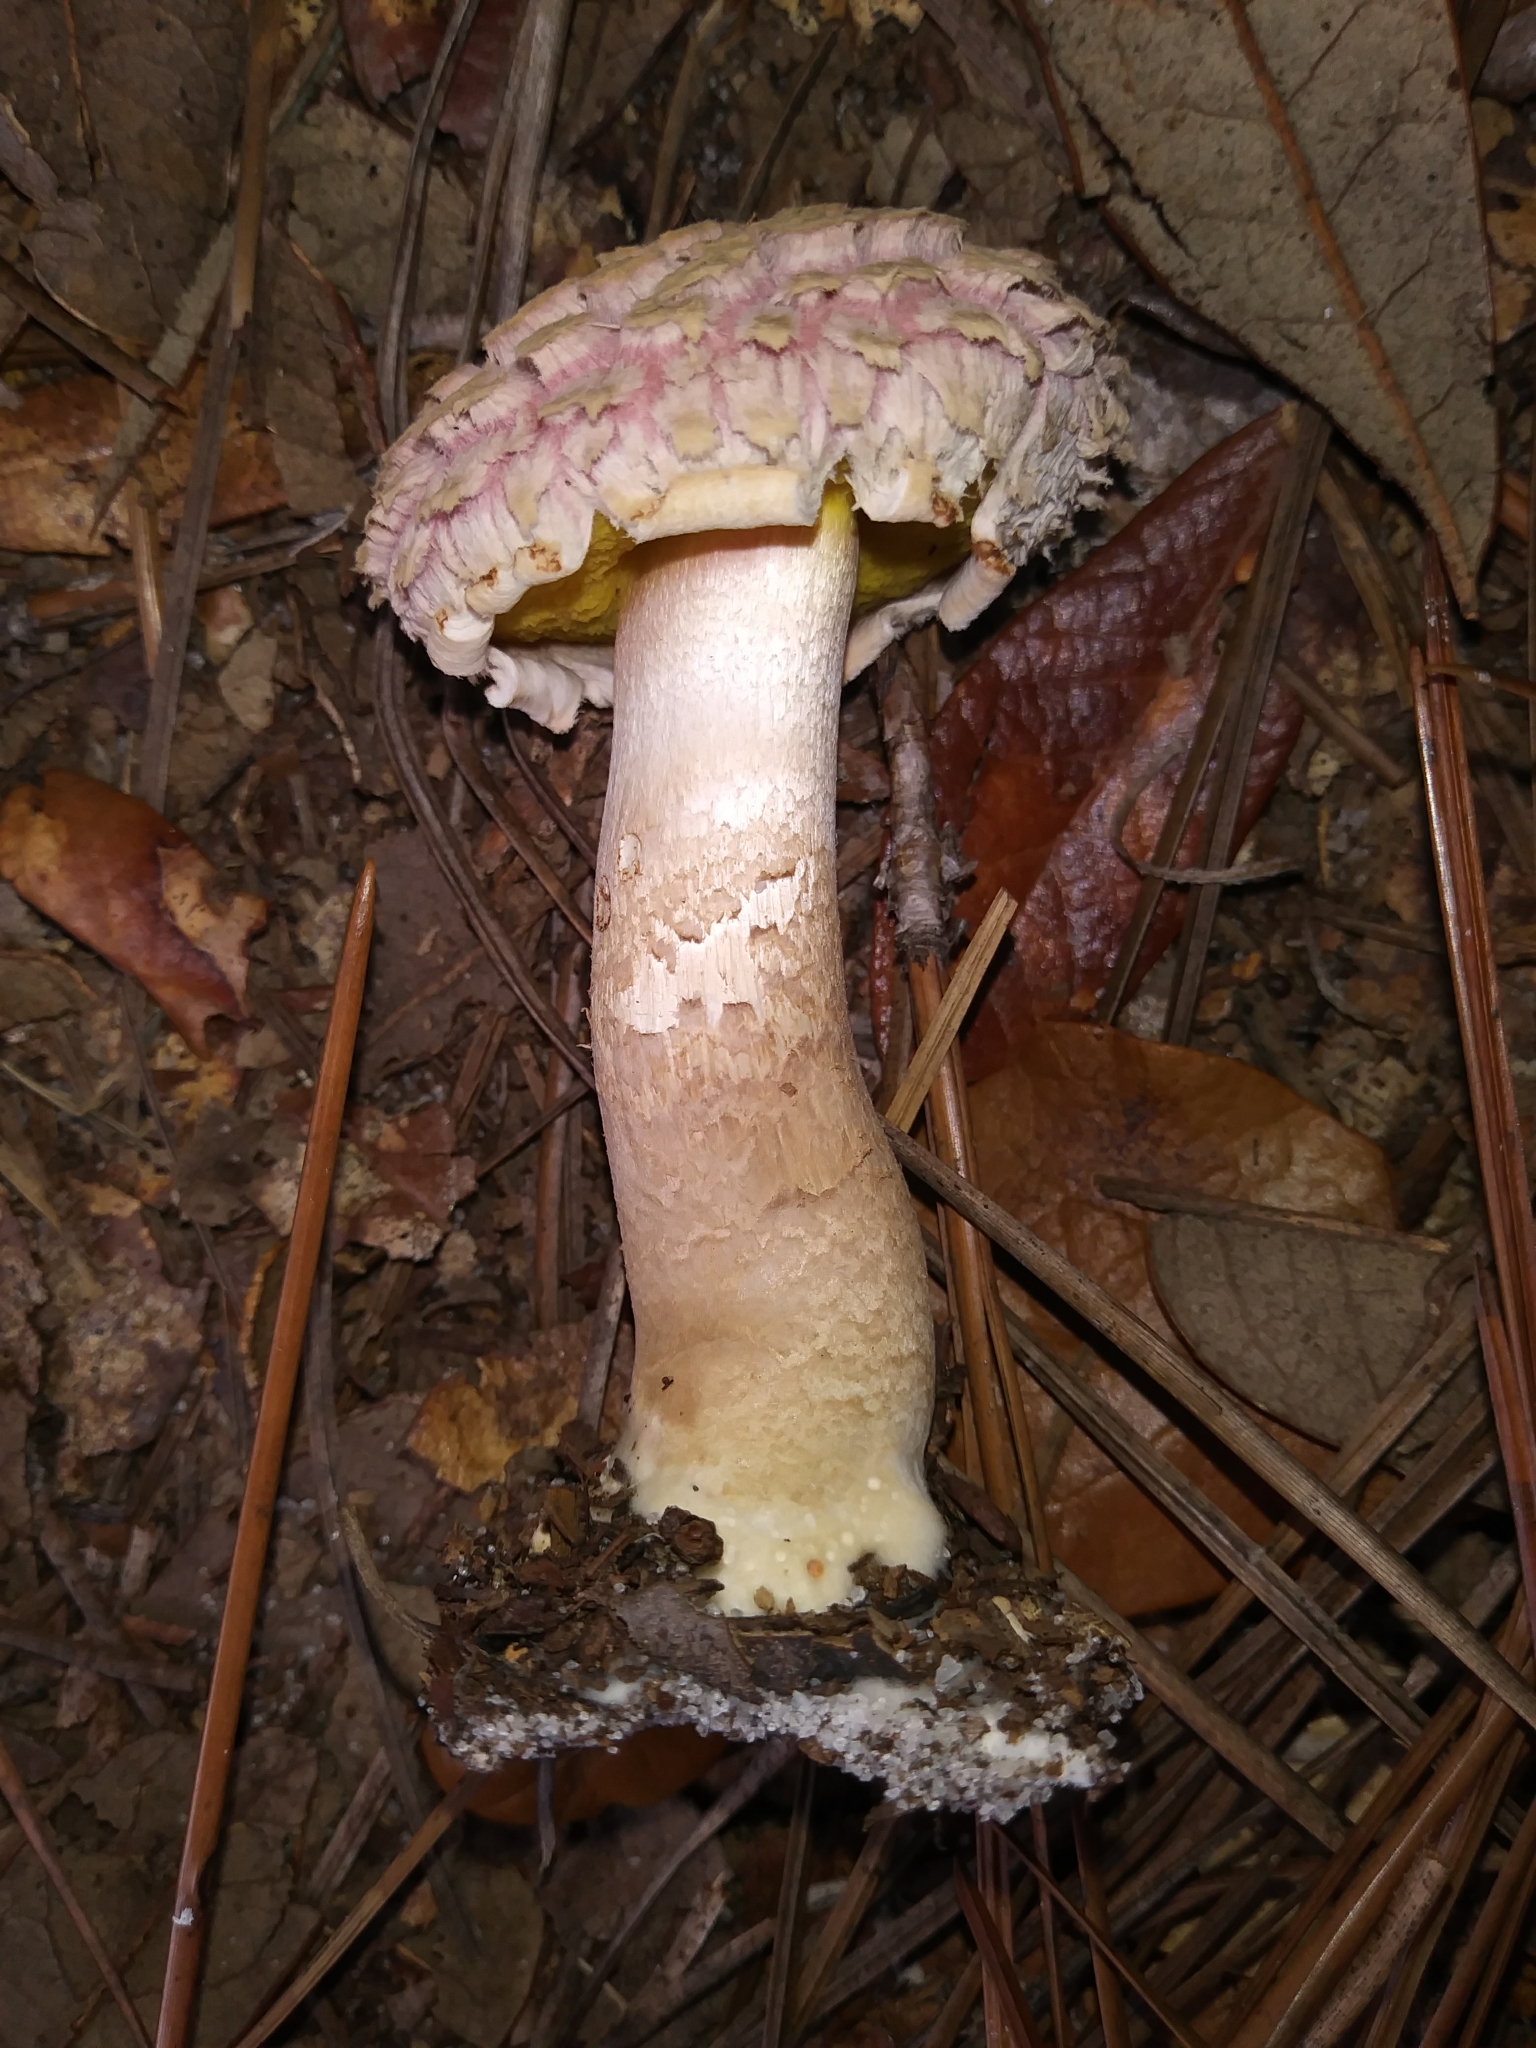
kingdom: Fungi
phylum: Basidiomycota
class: Agaricomycetes
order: Boletales
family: Boletaceae
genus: Boletellus
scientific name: Boletellus ananas
